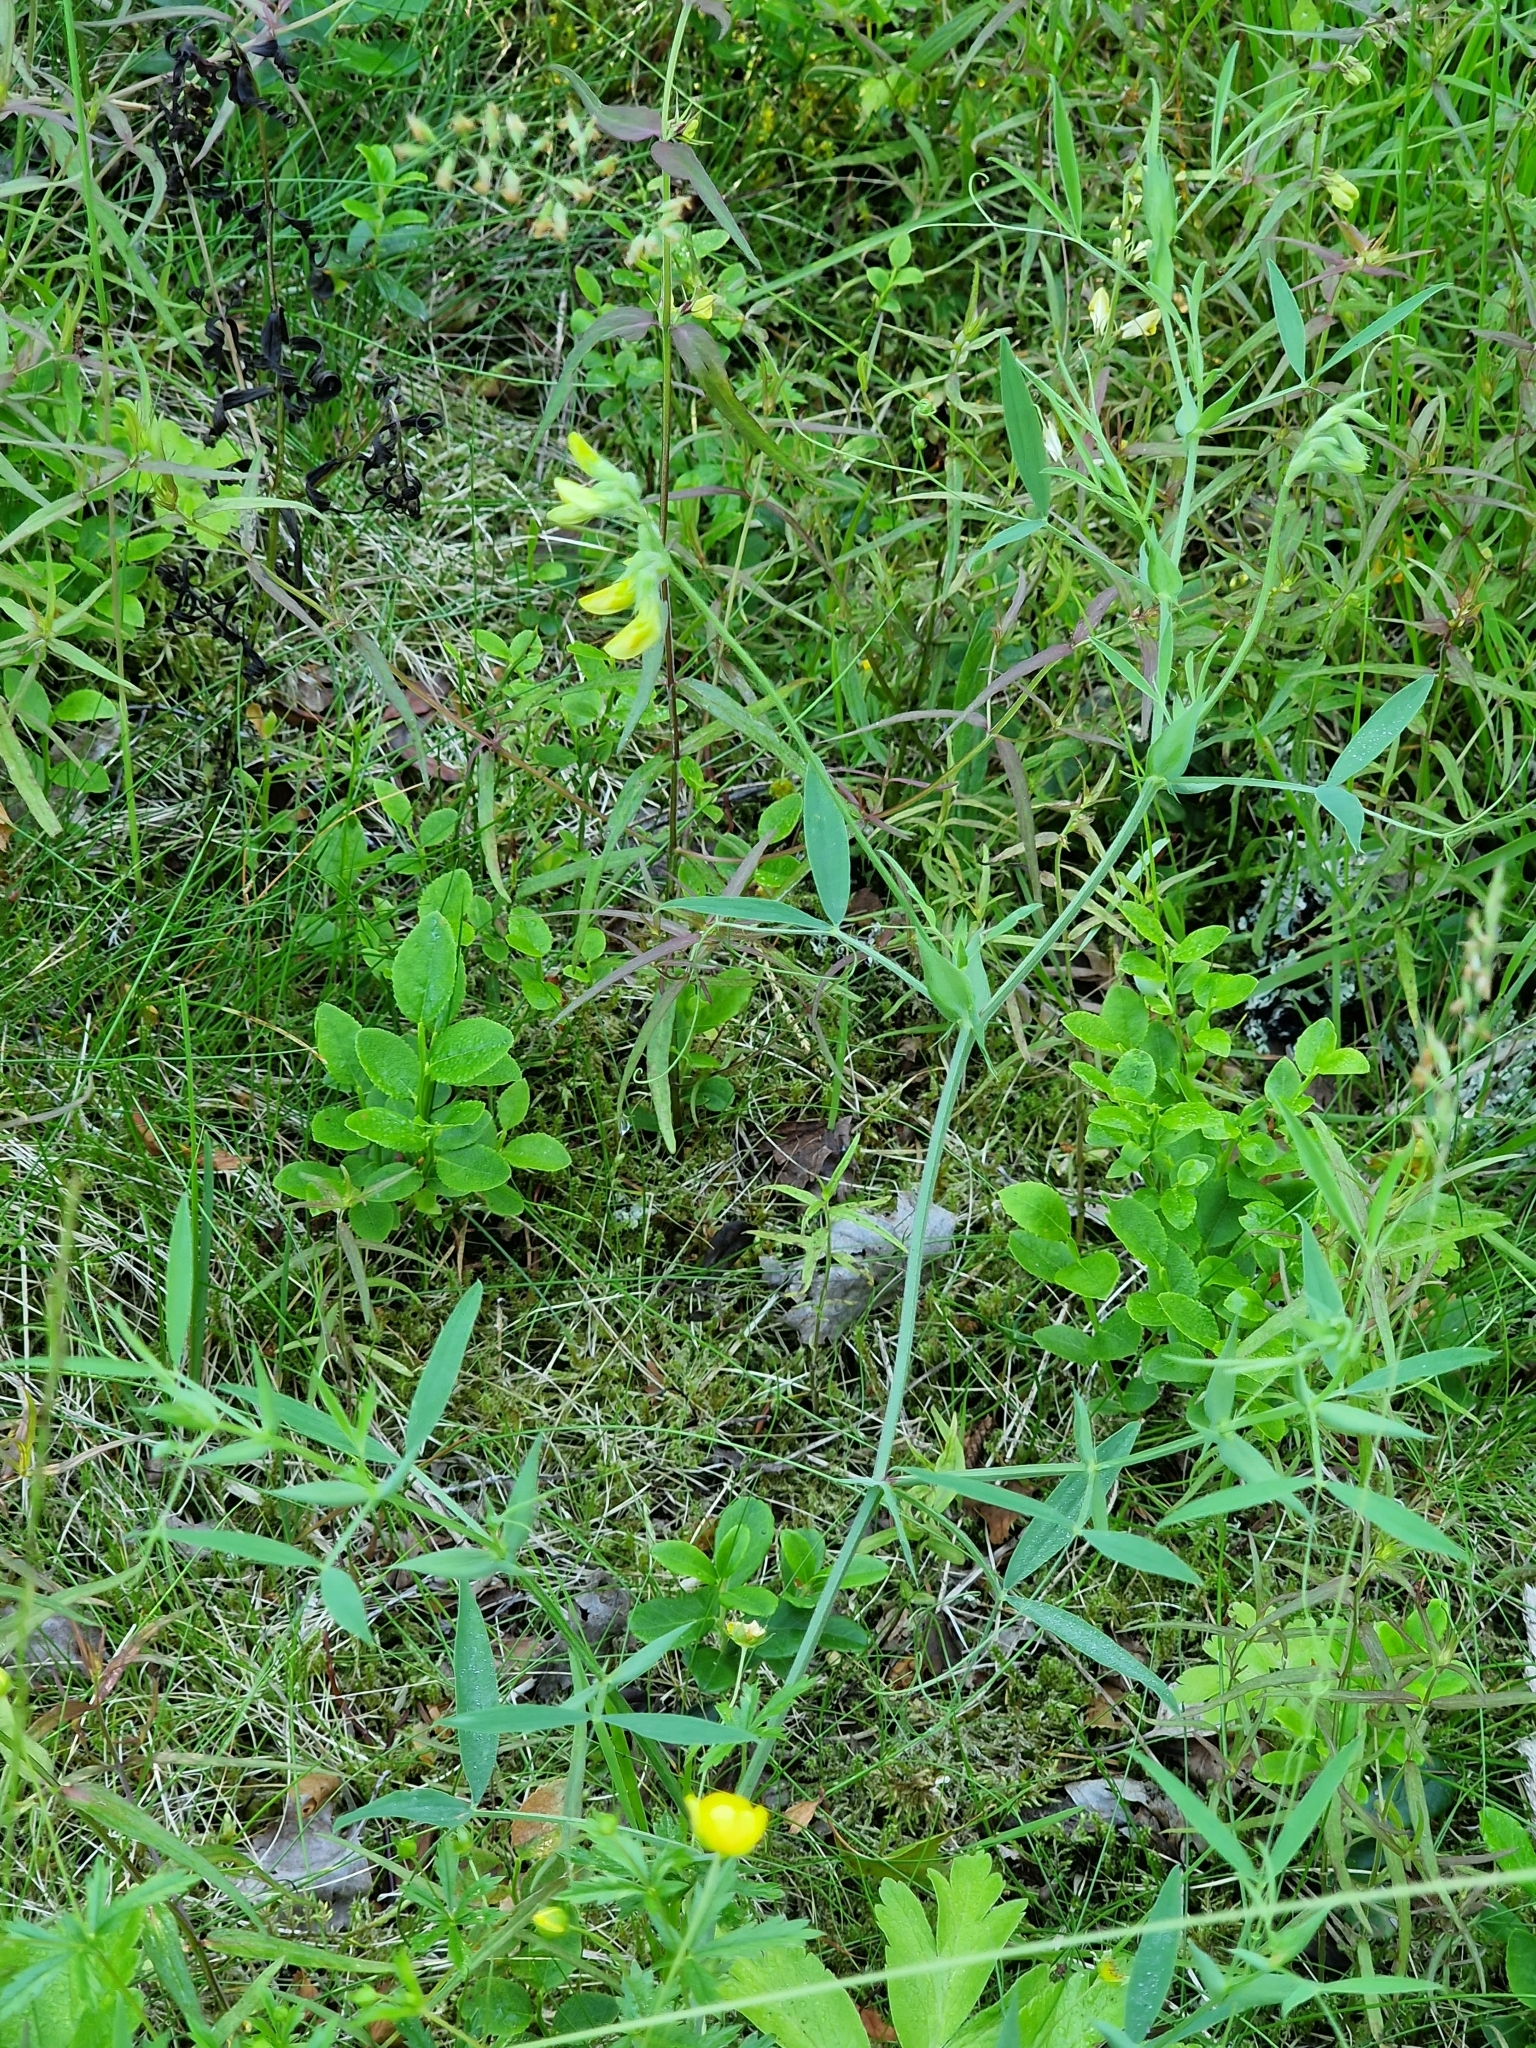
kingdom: Plantae
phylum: Tracheophyta
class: Magnoliopsida
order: Fabales
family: Fabaceae
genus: Lathyrus
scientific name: Lathyrus pratensis
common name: Meadow vetchling
